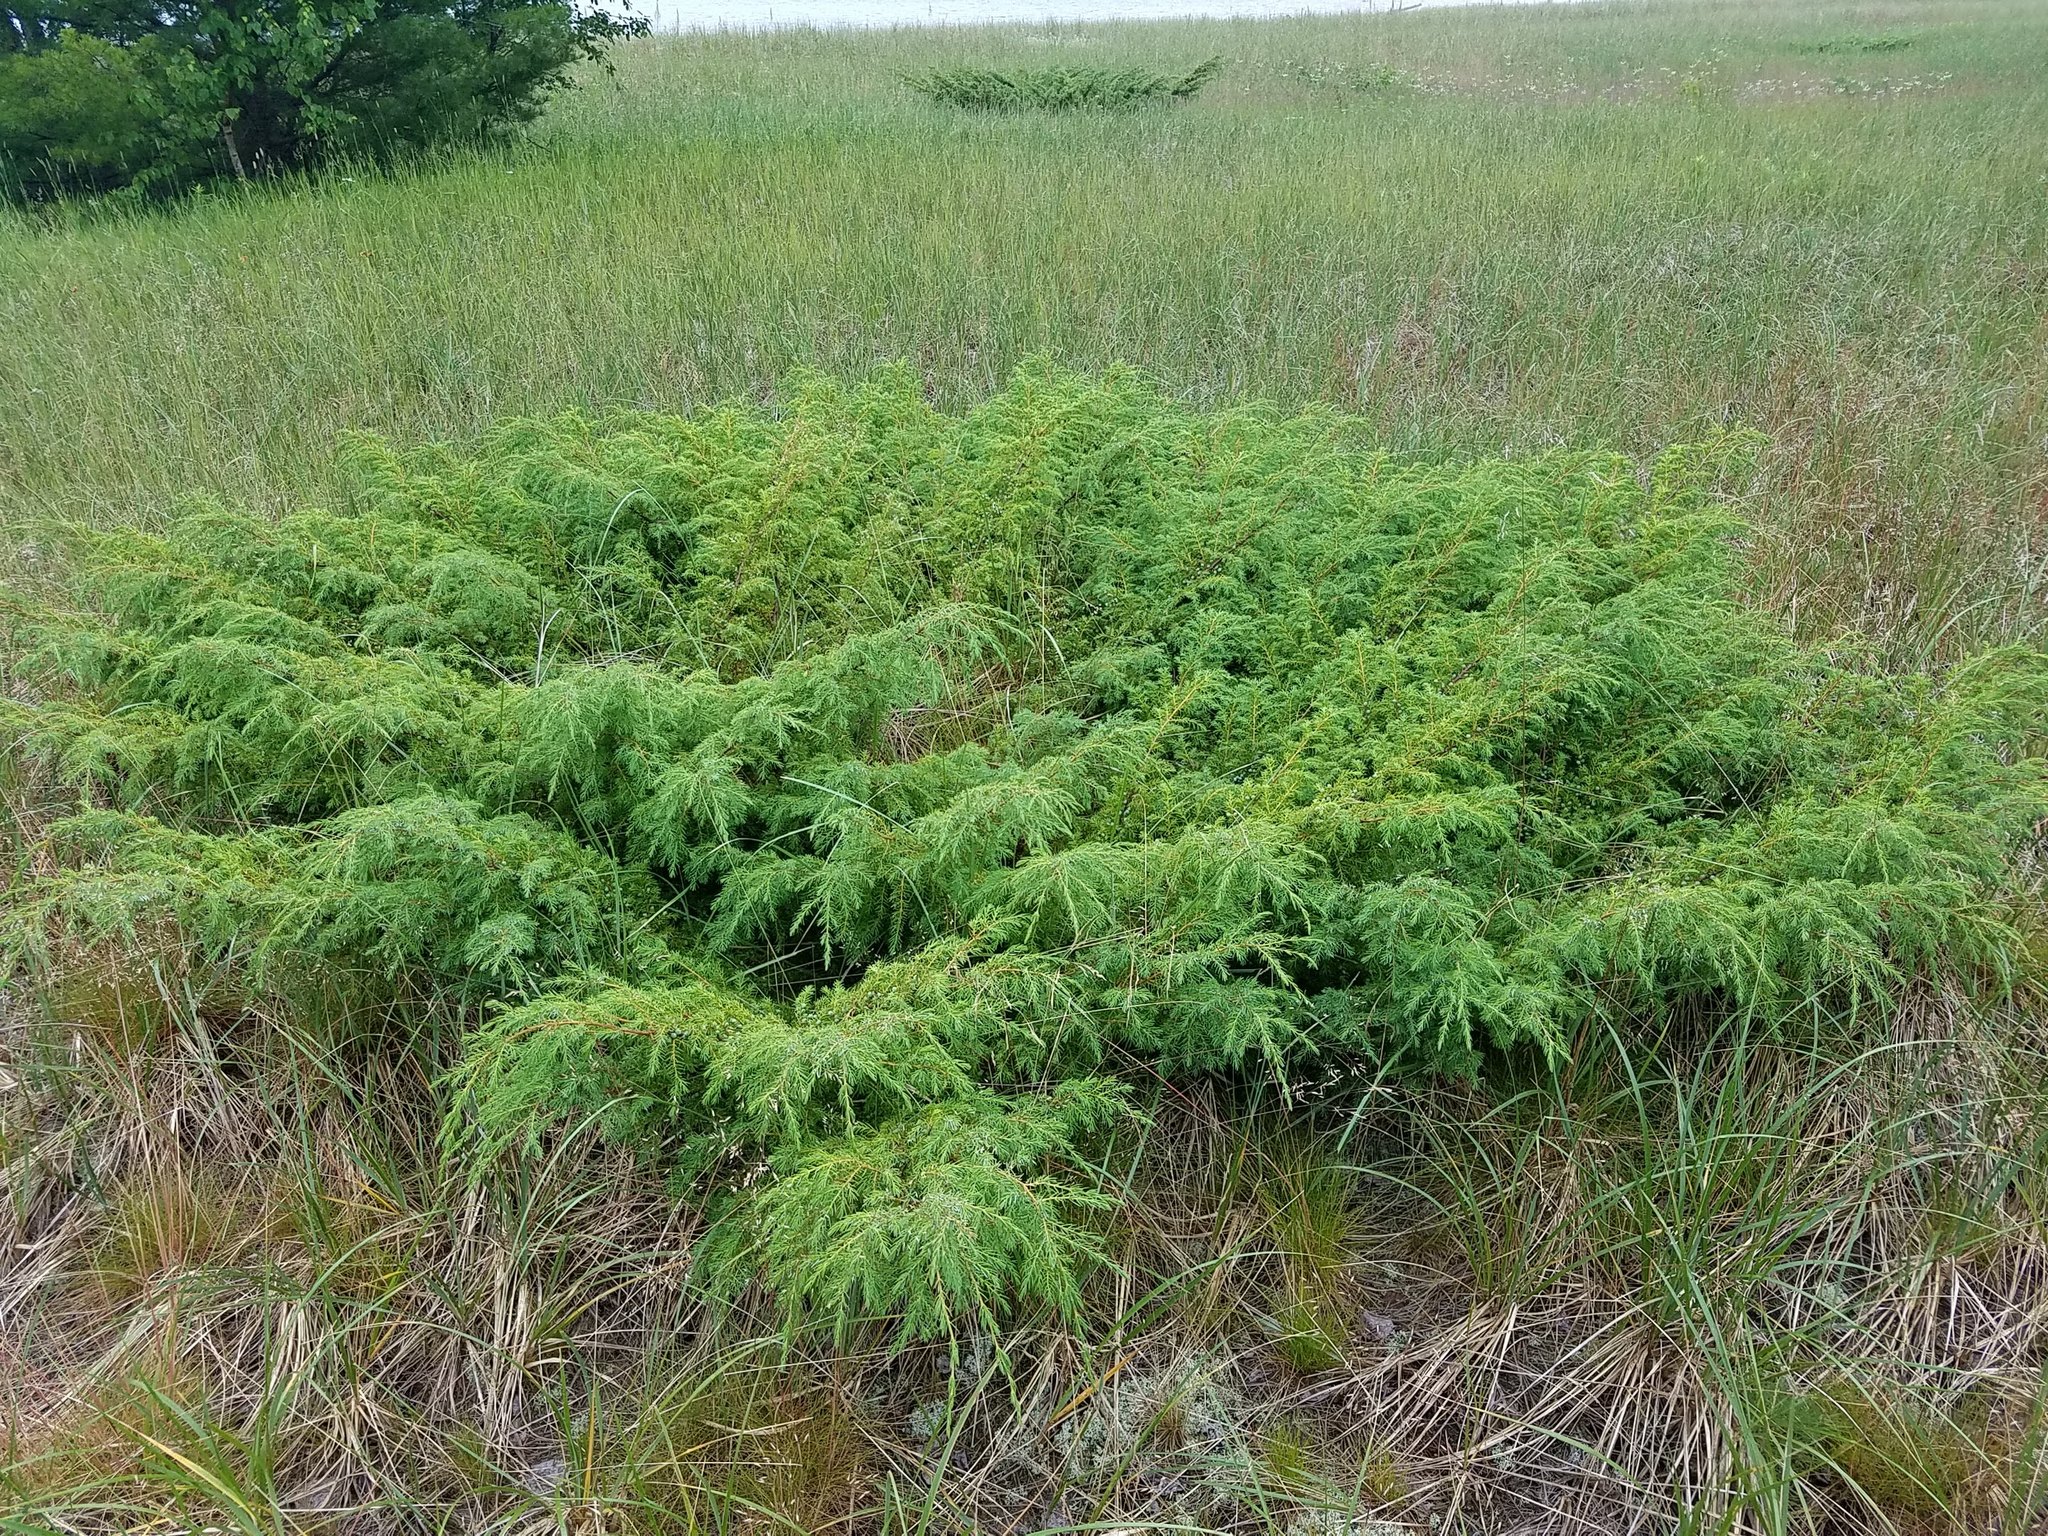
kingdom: Plantae
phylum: Tracheophyta
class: Pinopsida
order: Pinales
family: Cupressaceae
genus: Juniperus
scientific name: Juniperus communis
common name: Common juniper
